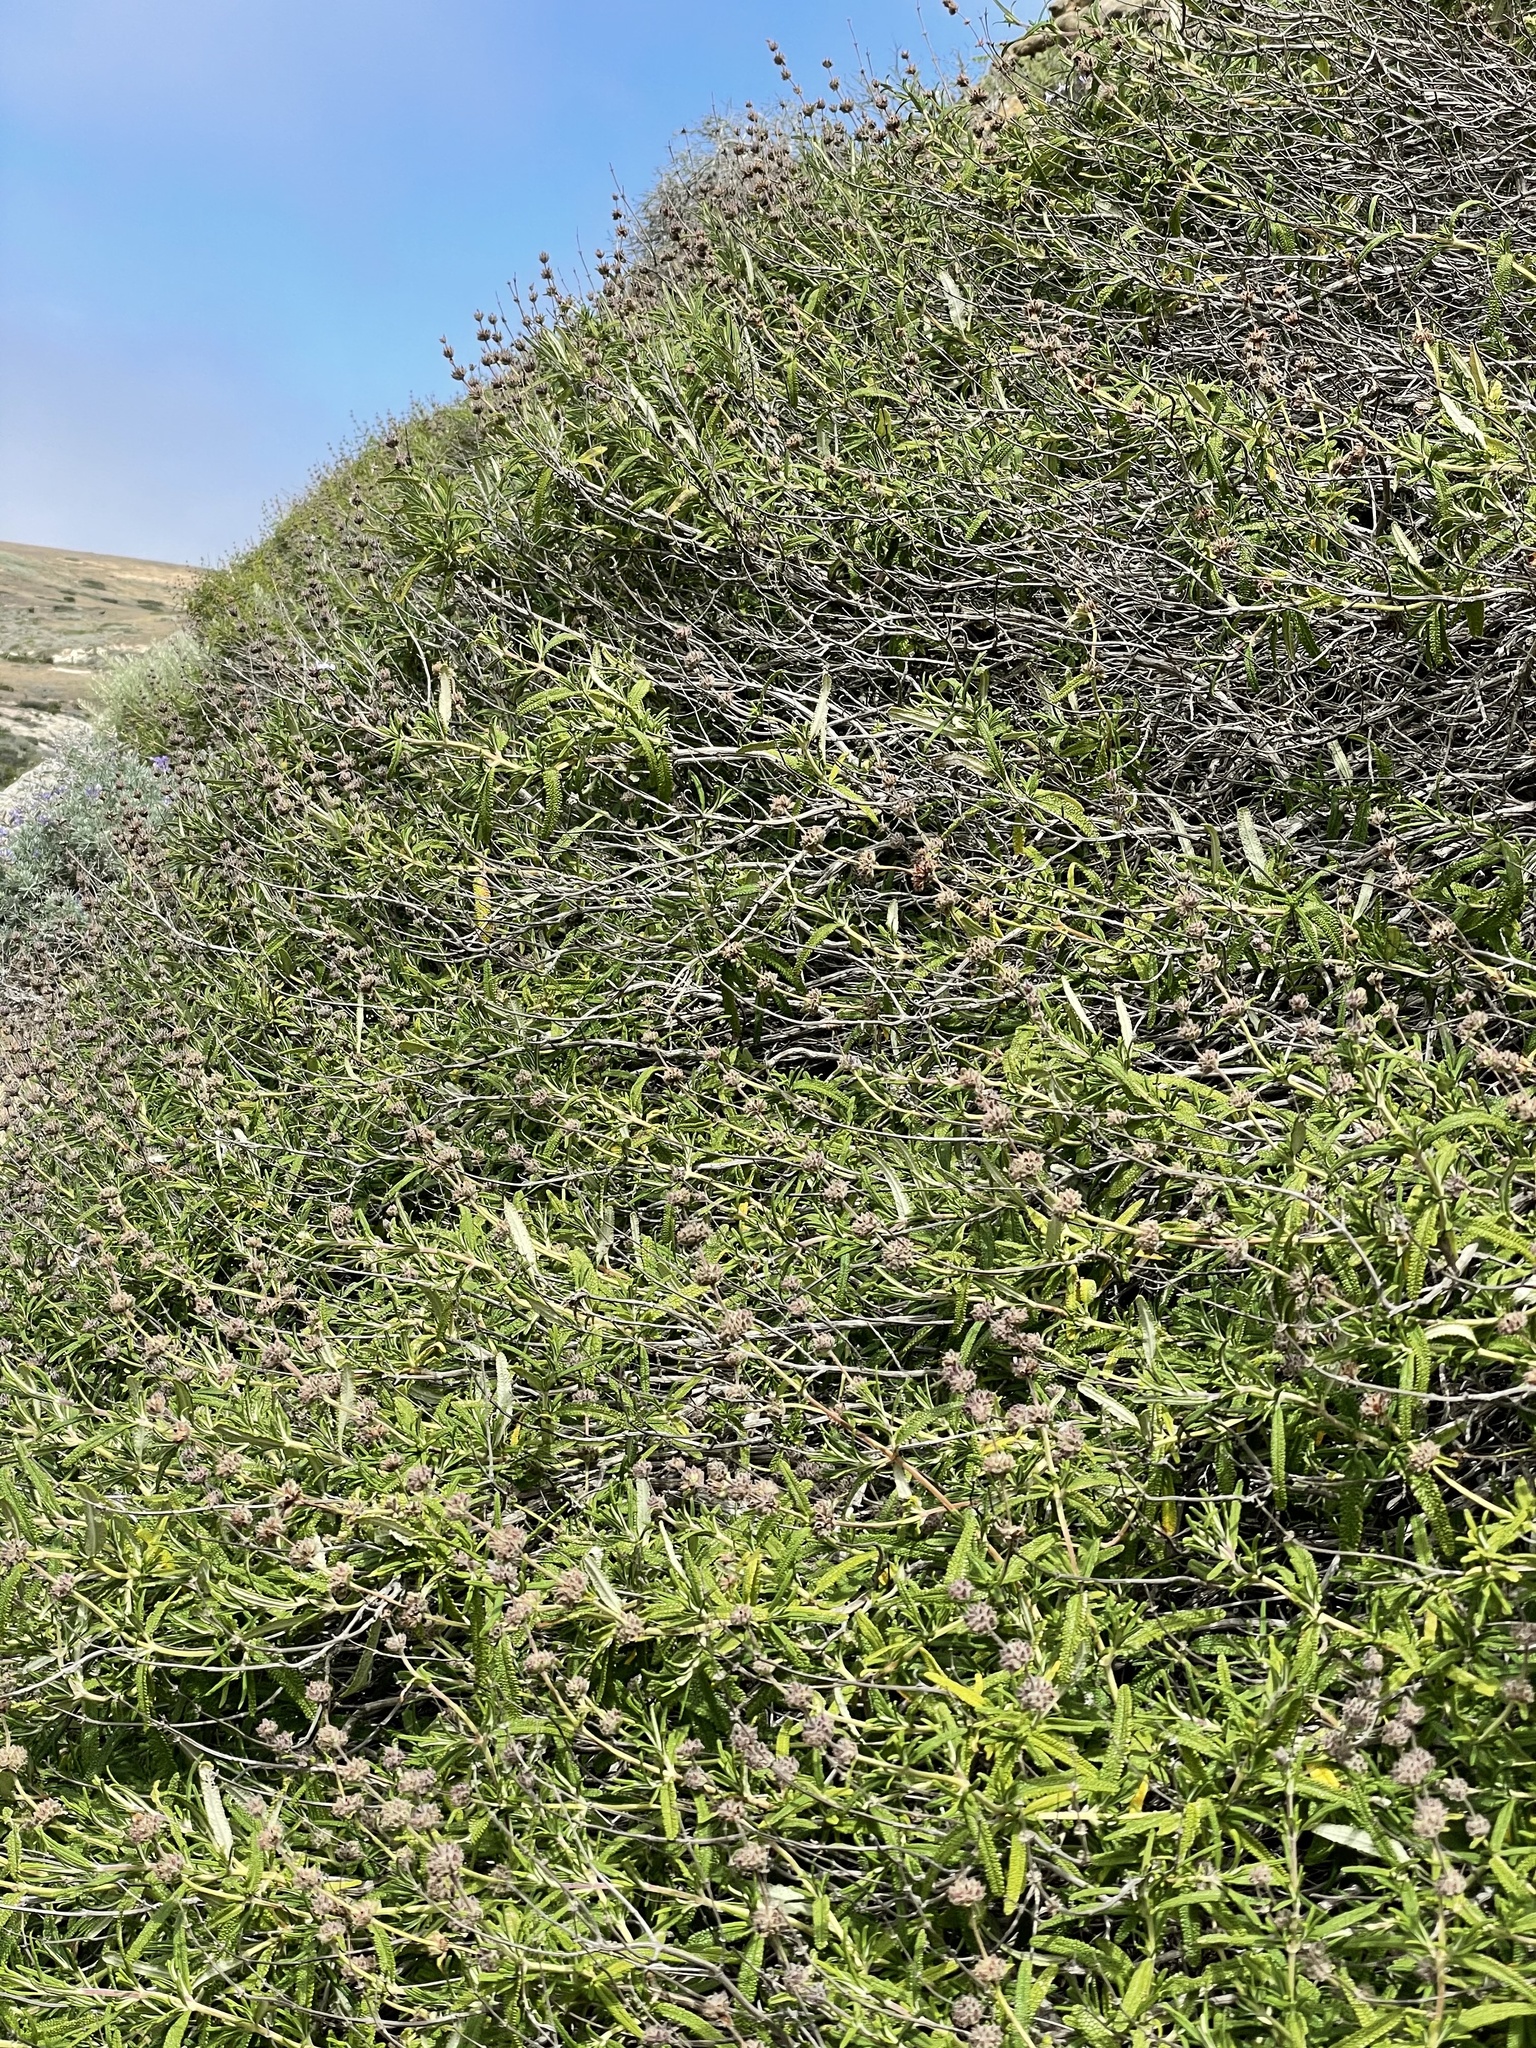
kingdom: Plantae
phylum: Tracheophyta
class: Magnoliopsida
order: Lamiales
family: Lamiaceae
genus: Salvia
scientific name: Salvia brandegeei
